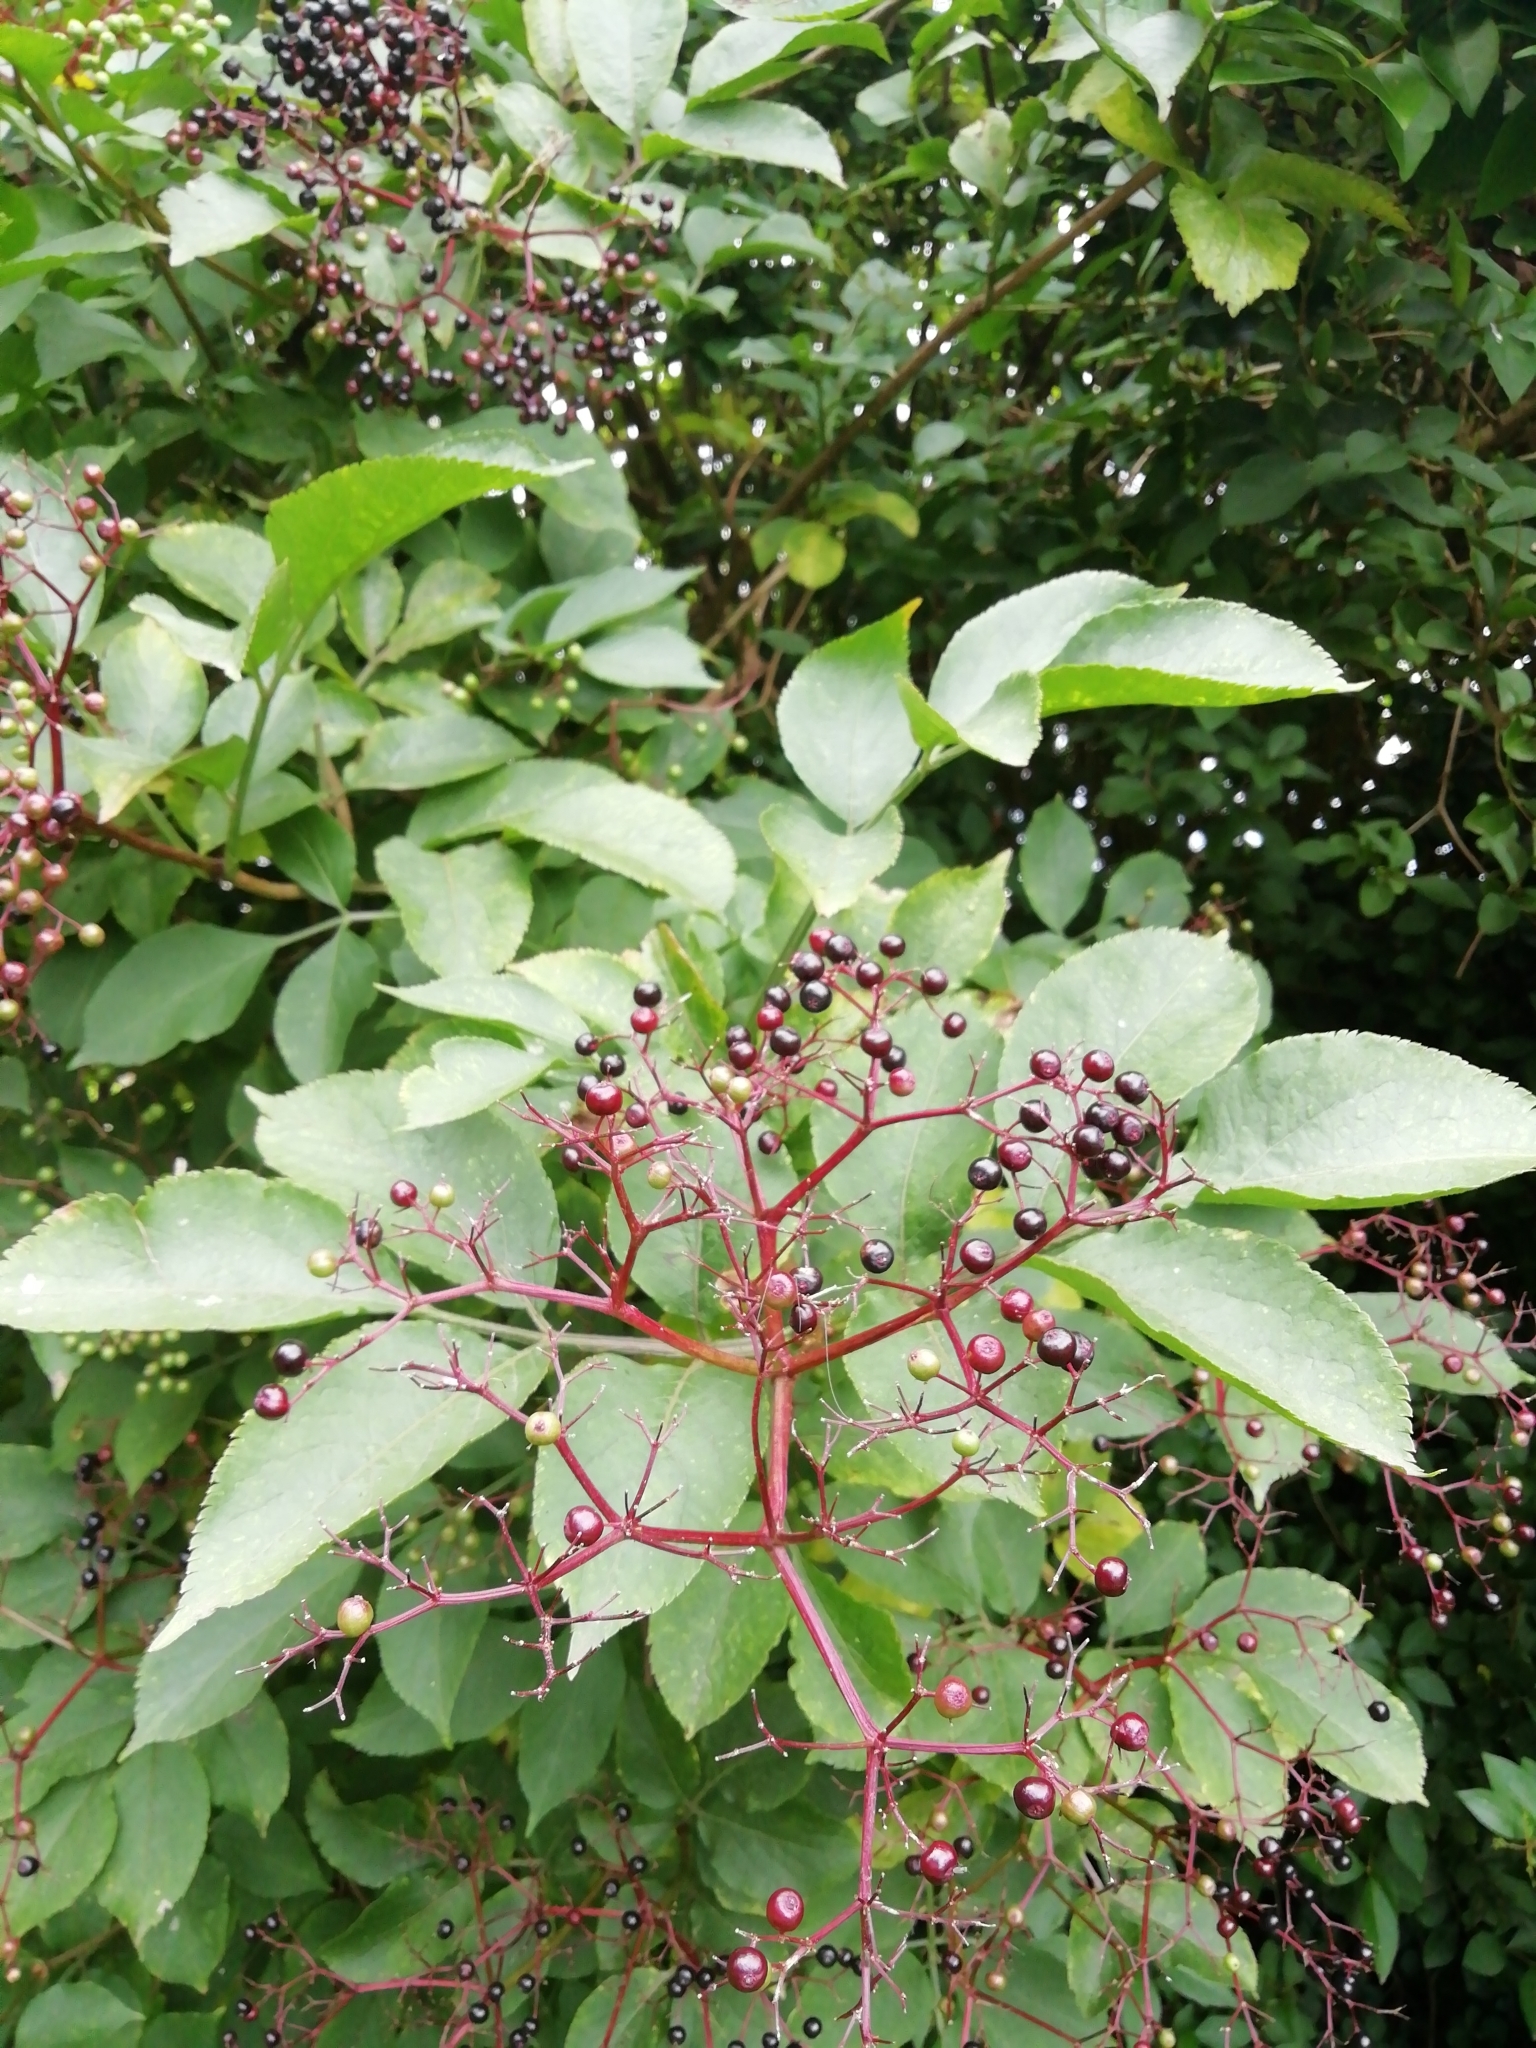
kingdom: Plantae
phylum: Tracheophyta
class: Magnoliopsida
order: Dipsacales
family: Viburnaceae
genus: Sambucus
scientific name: Sambucus nigra
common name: Elder
